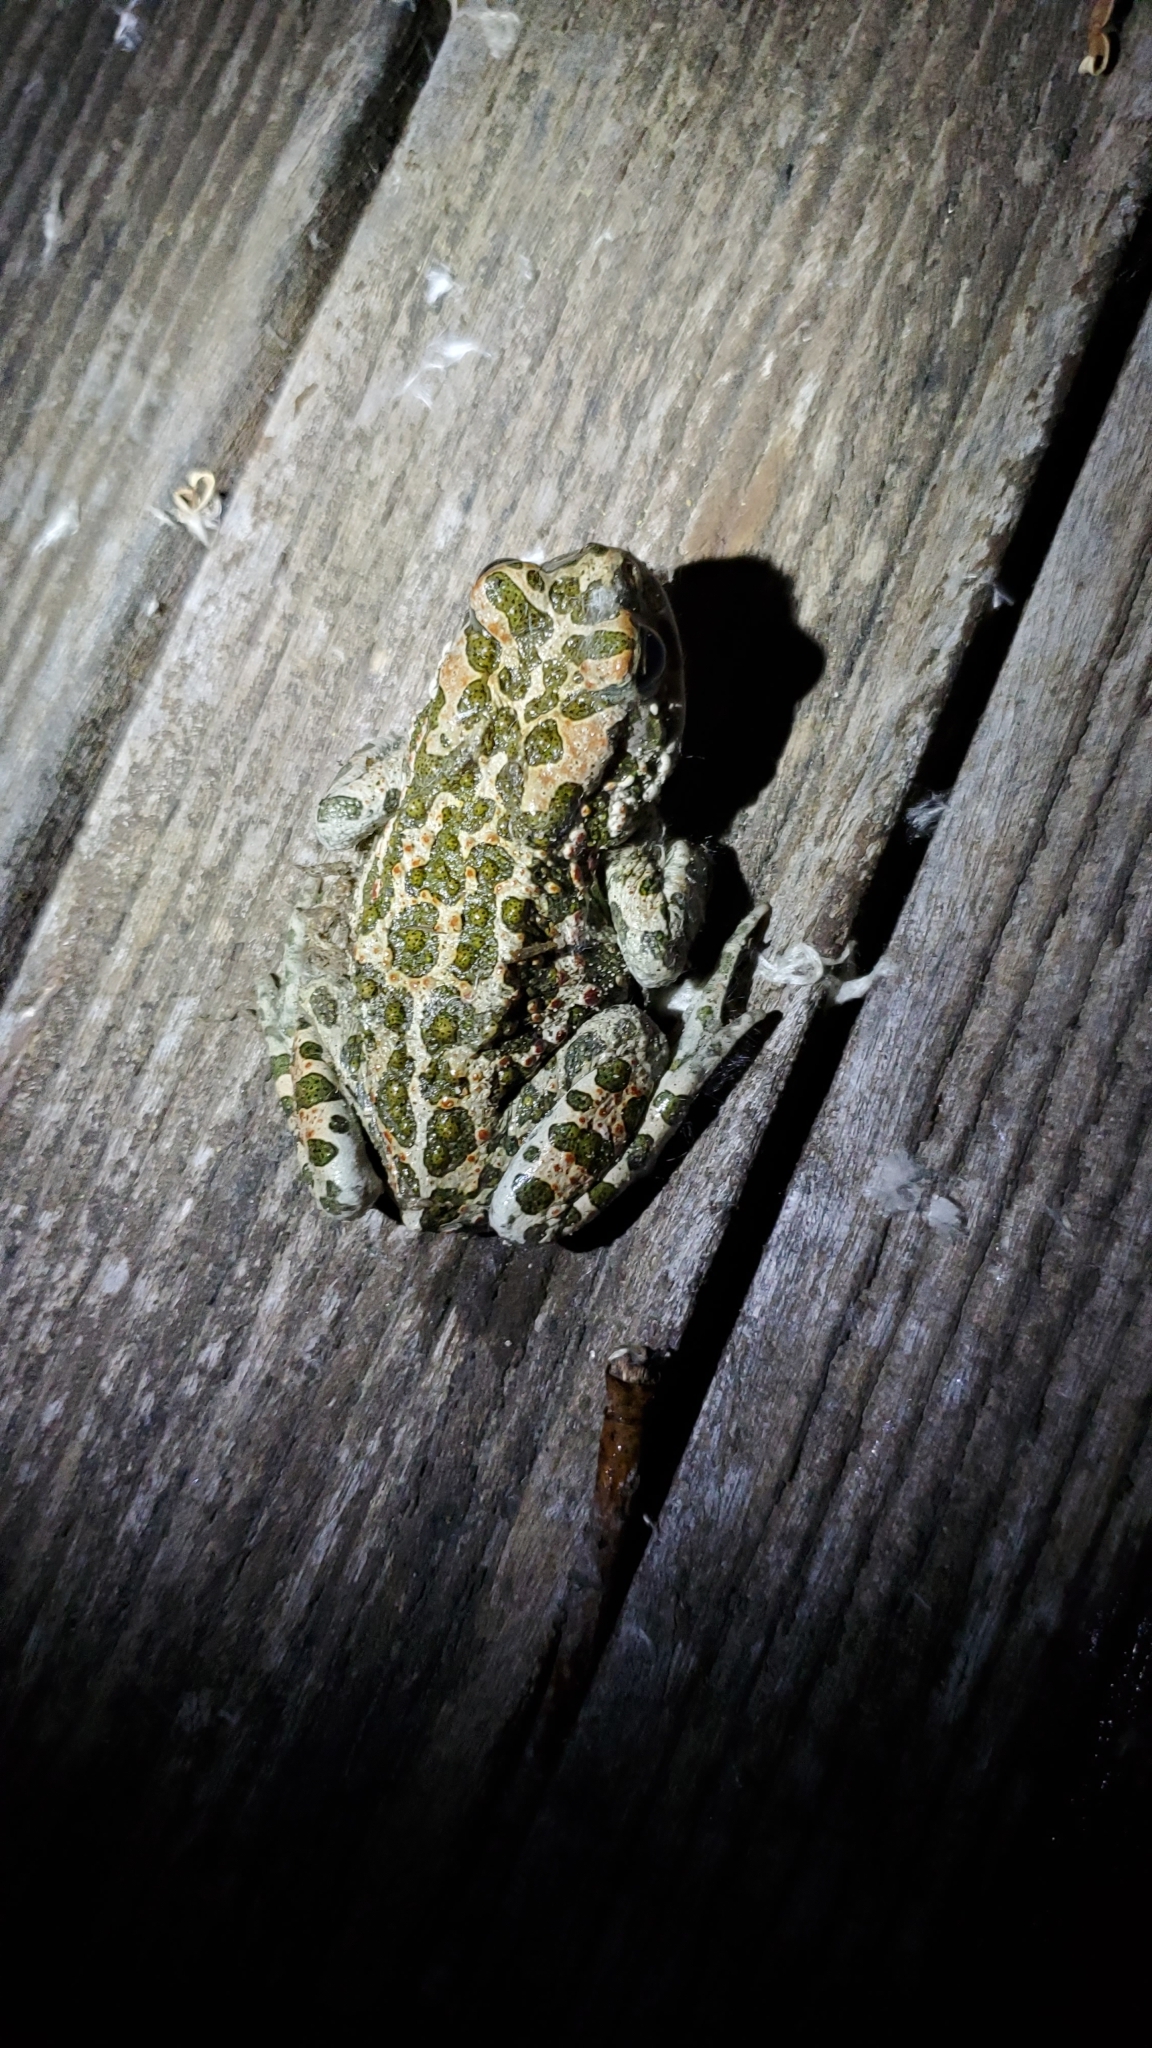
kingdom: Animalia
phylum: Chordata
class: Amphibia
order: Anura
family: Bufonidae
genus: Bufotes
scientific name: Bufotes viridis
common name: European green toad
